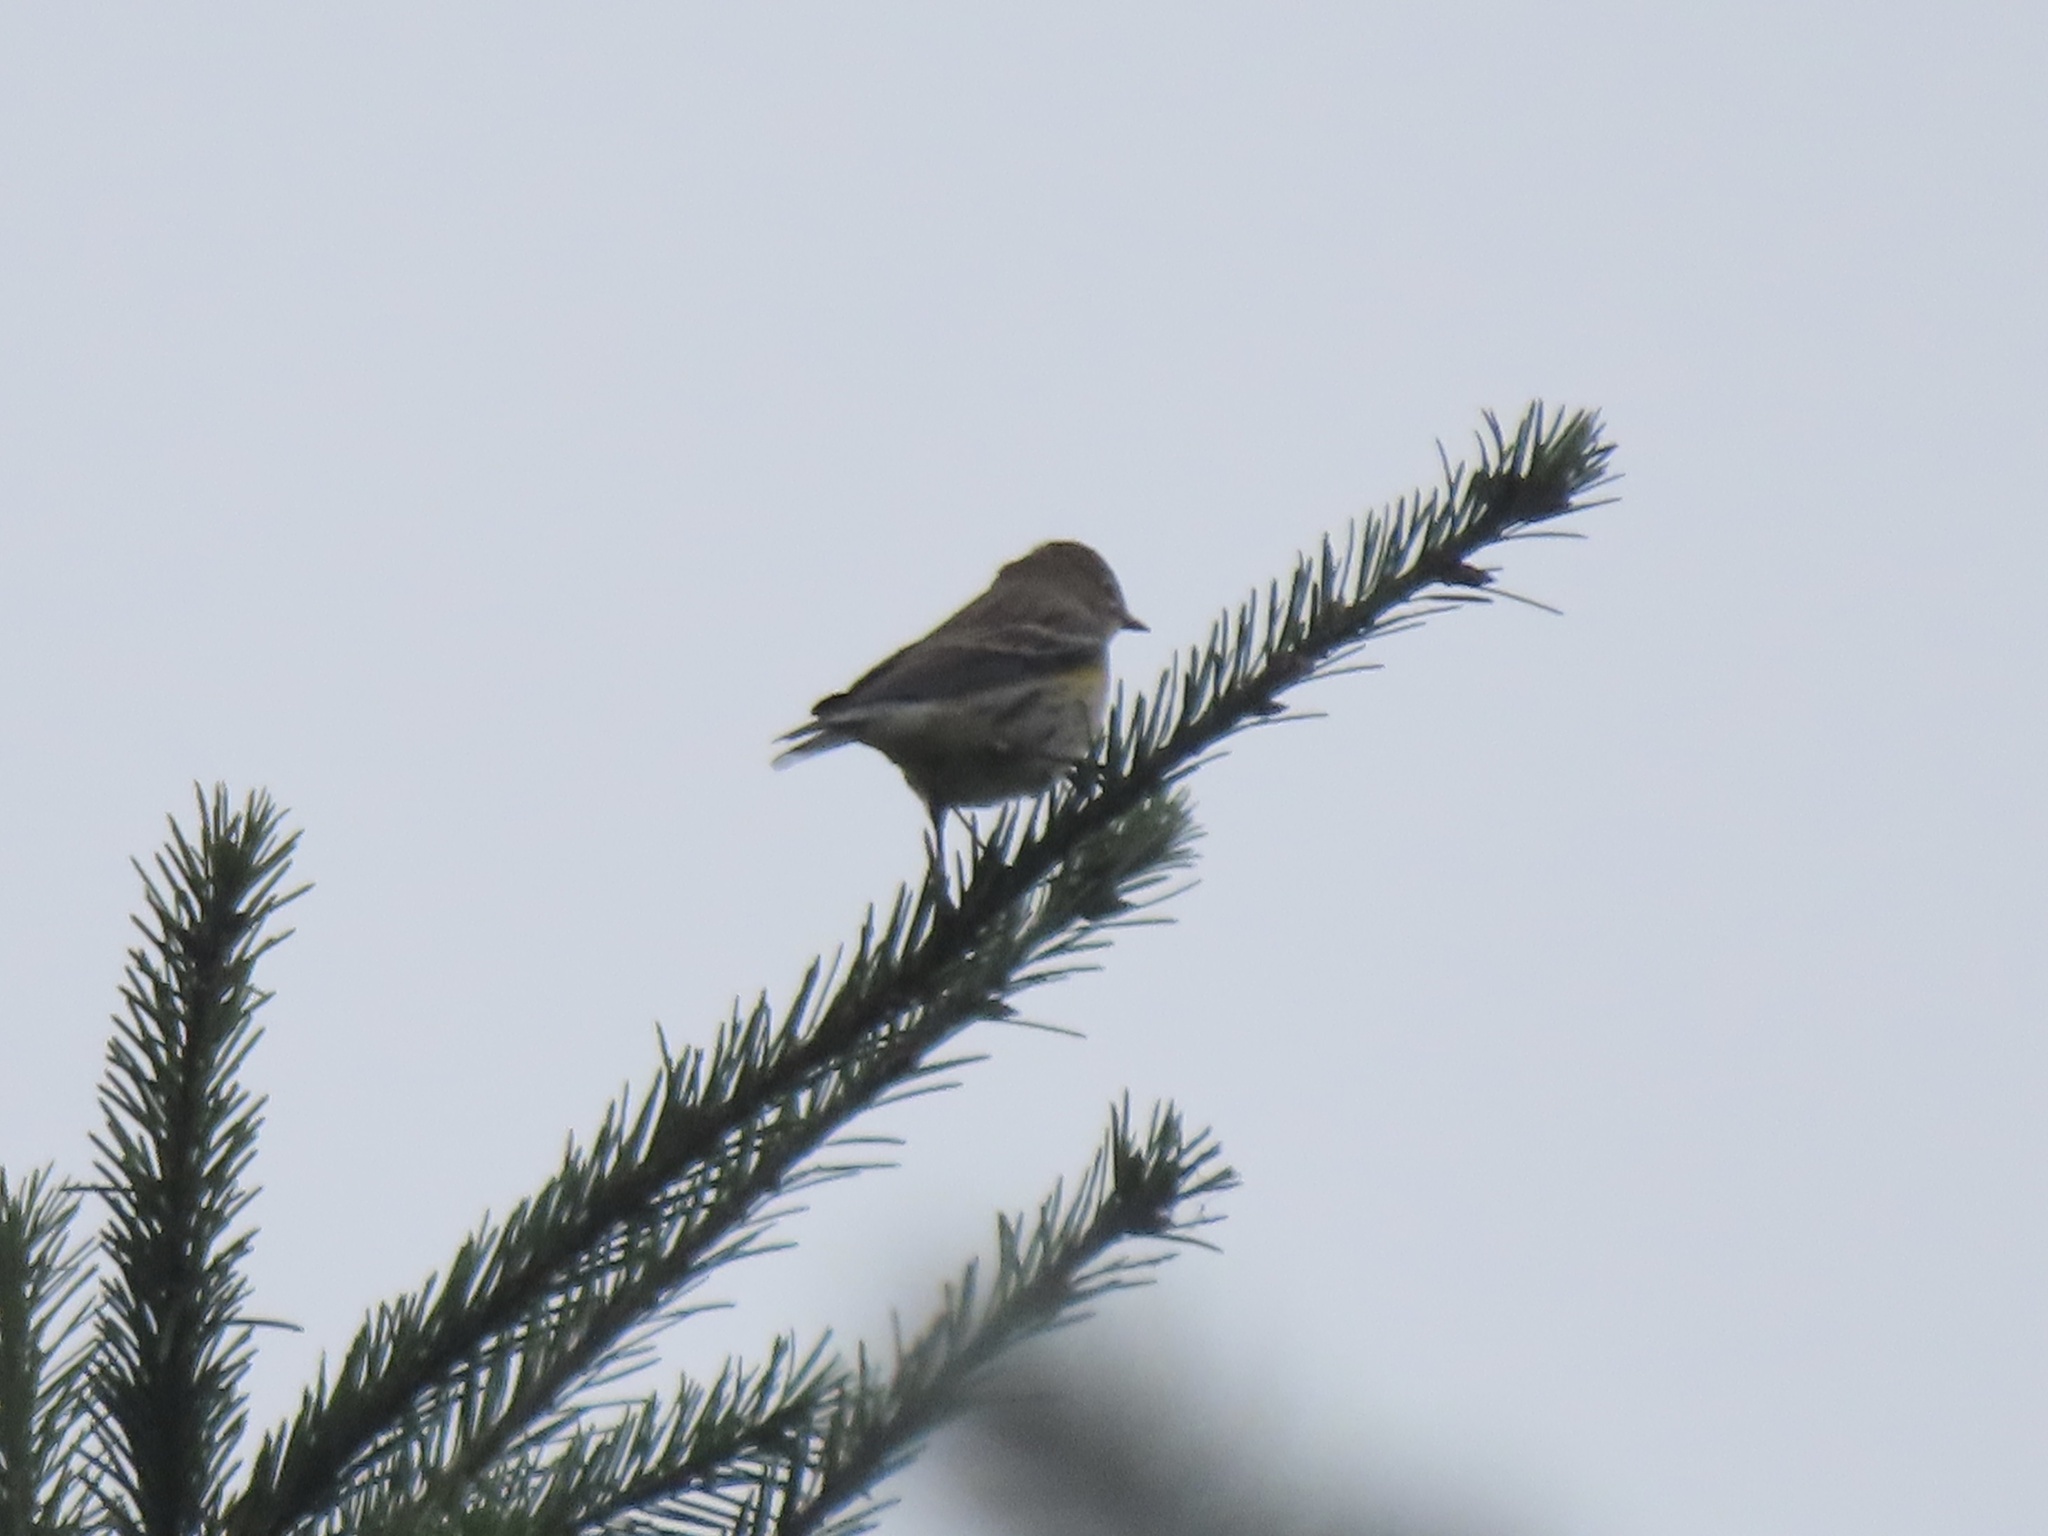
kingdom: Animalia
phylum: Chordata
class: Aves
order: Passeriformes
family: Parulidae
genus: Setophaga
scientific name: Setophaga coronata
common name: Myrtle warbler
